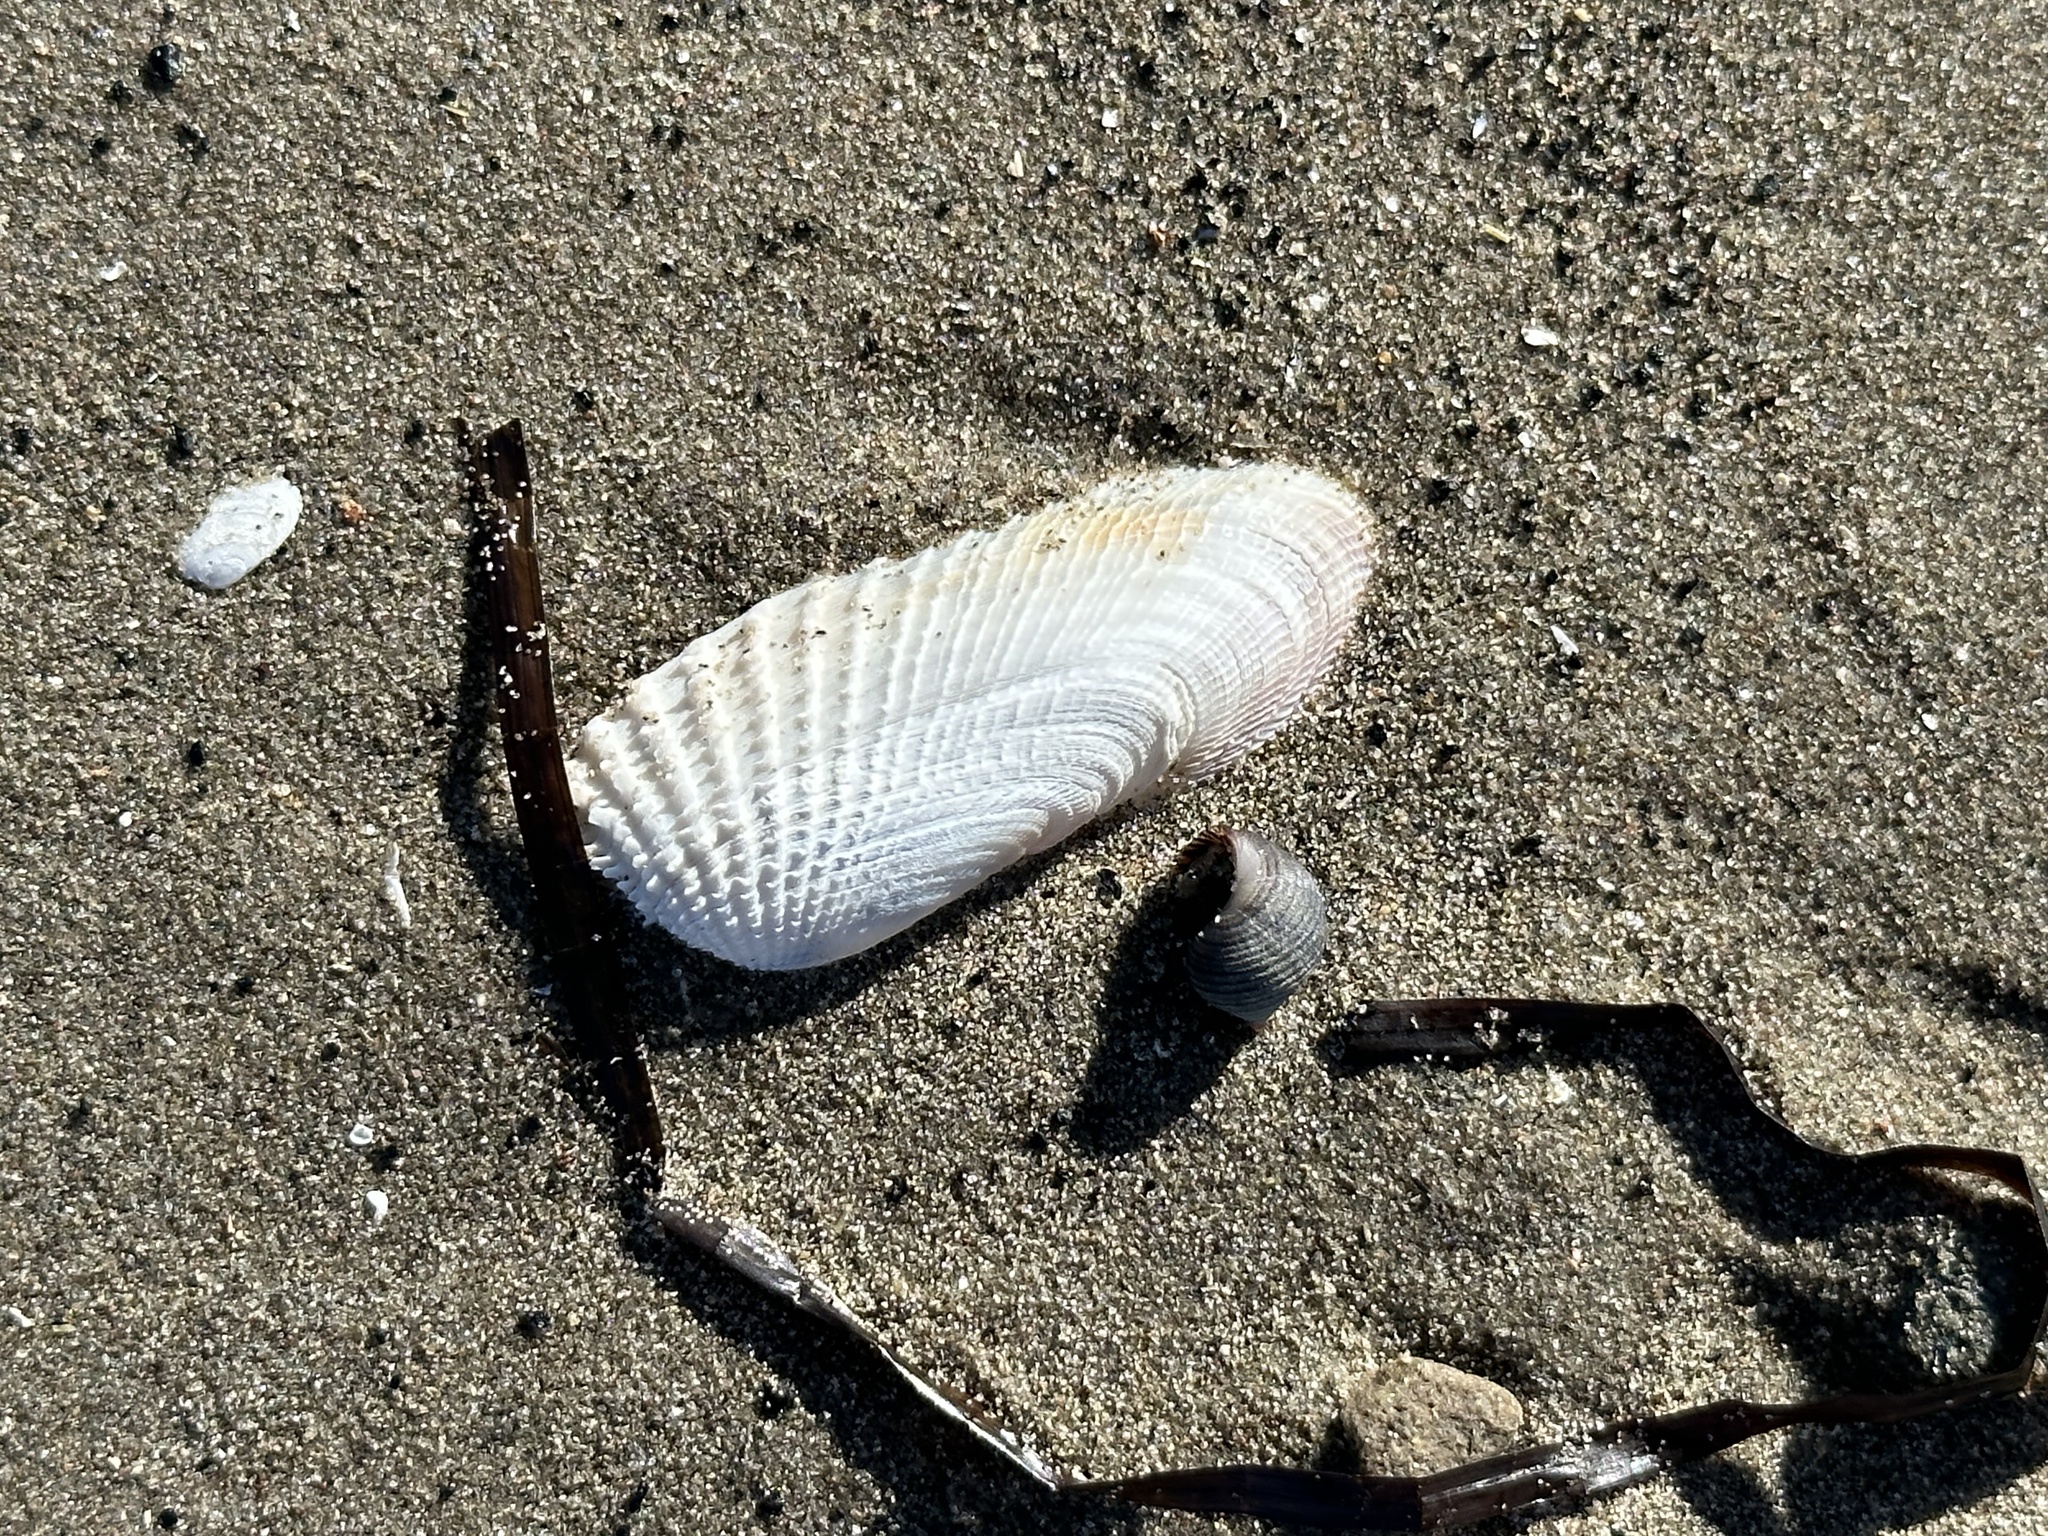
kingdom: Animalia
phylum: Mollusca
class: Bivalvia
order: Venerida
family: Veneridae
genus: Petricolaria
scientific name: Petricolaria pholadiformis
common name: American piddock
